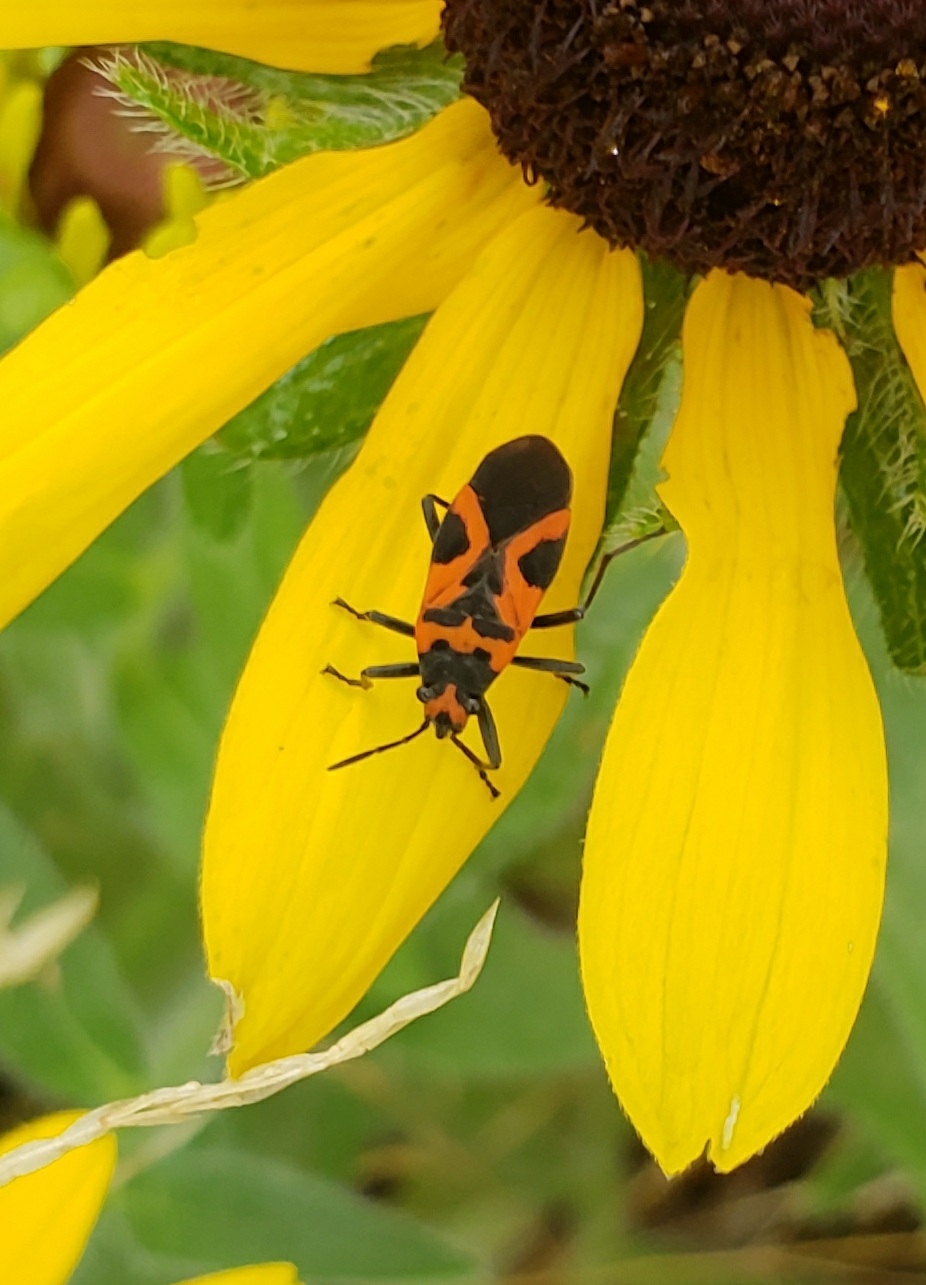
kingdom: Animalia
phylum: Arthropoda
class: Insecta
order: Hemiptera
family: Lygaeidae
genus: Lygaeus
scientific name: Lygaeus turcicus
